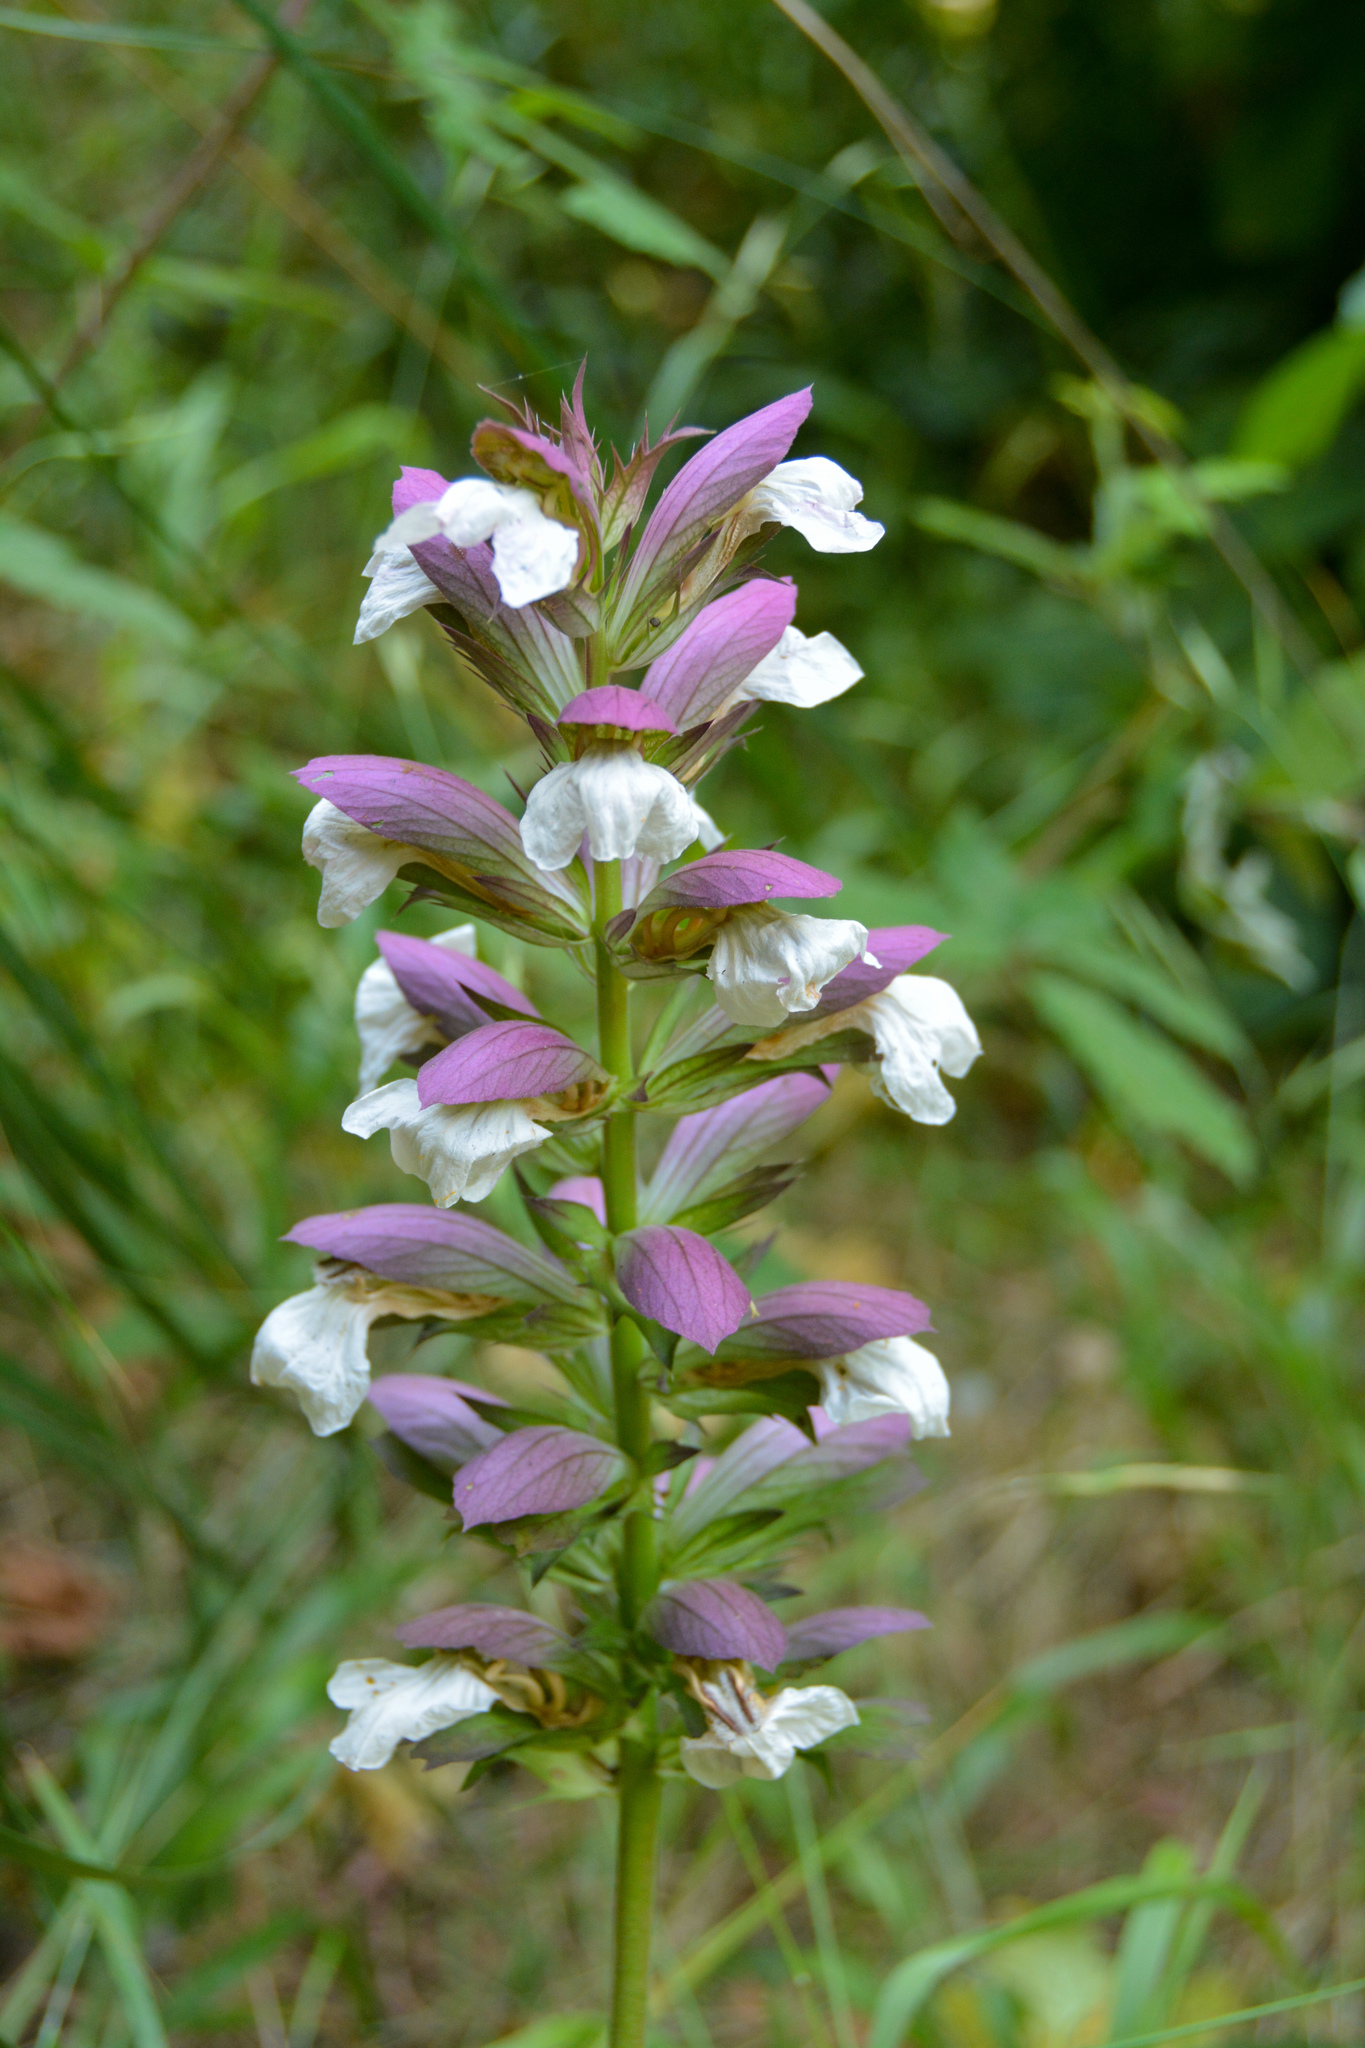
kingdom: Plantae
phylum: Tracheophyta
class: Magnoliopsida
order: Lamiales
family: Acanthaceae
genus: Acanthus
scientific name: Acanthus mollis
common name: Bear's-breech
